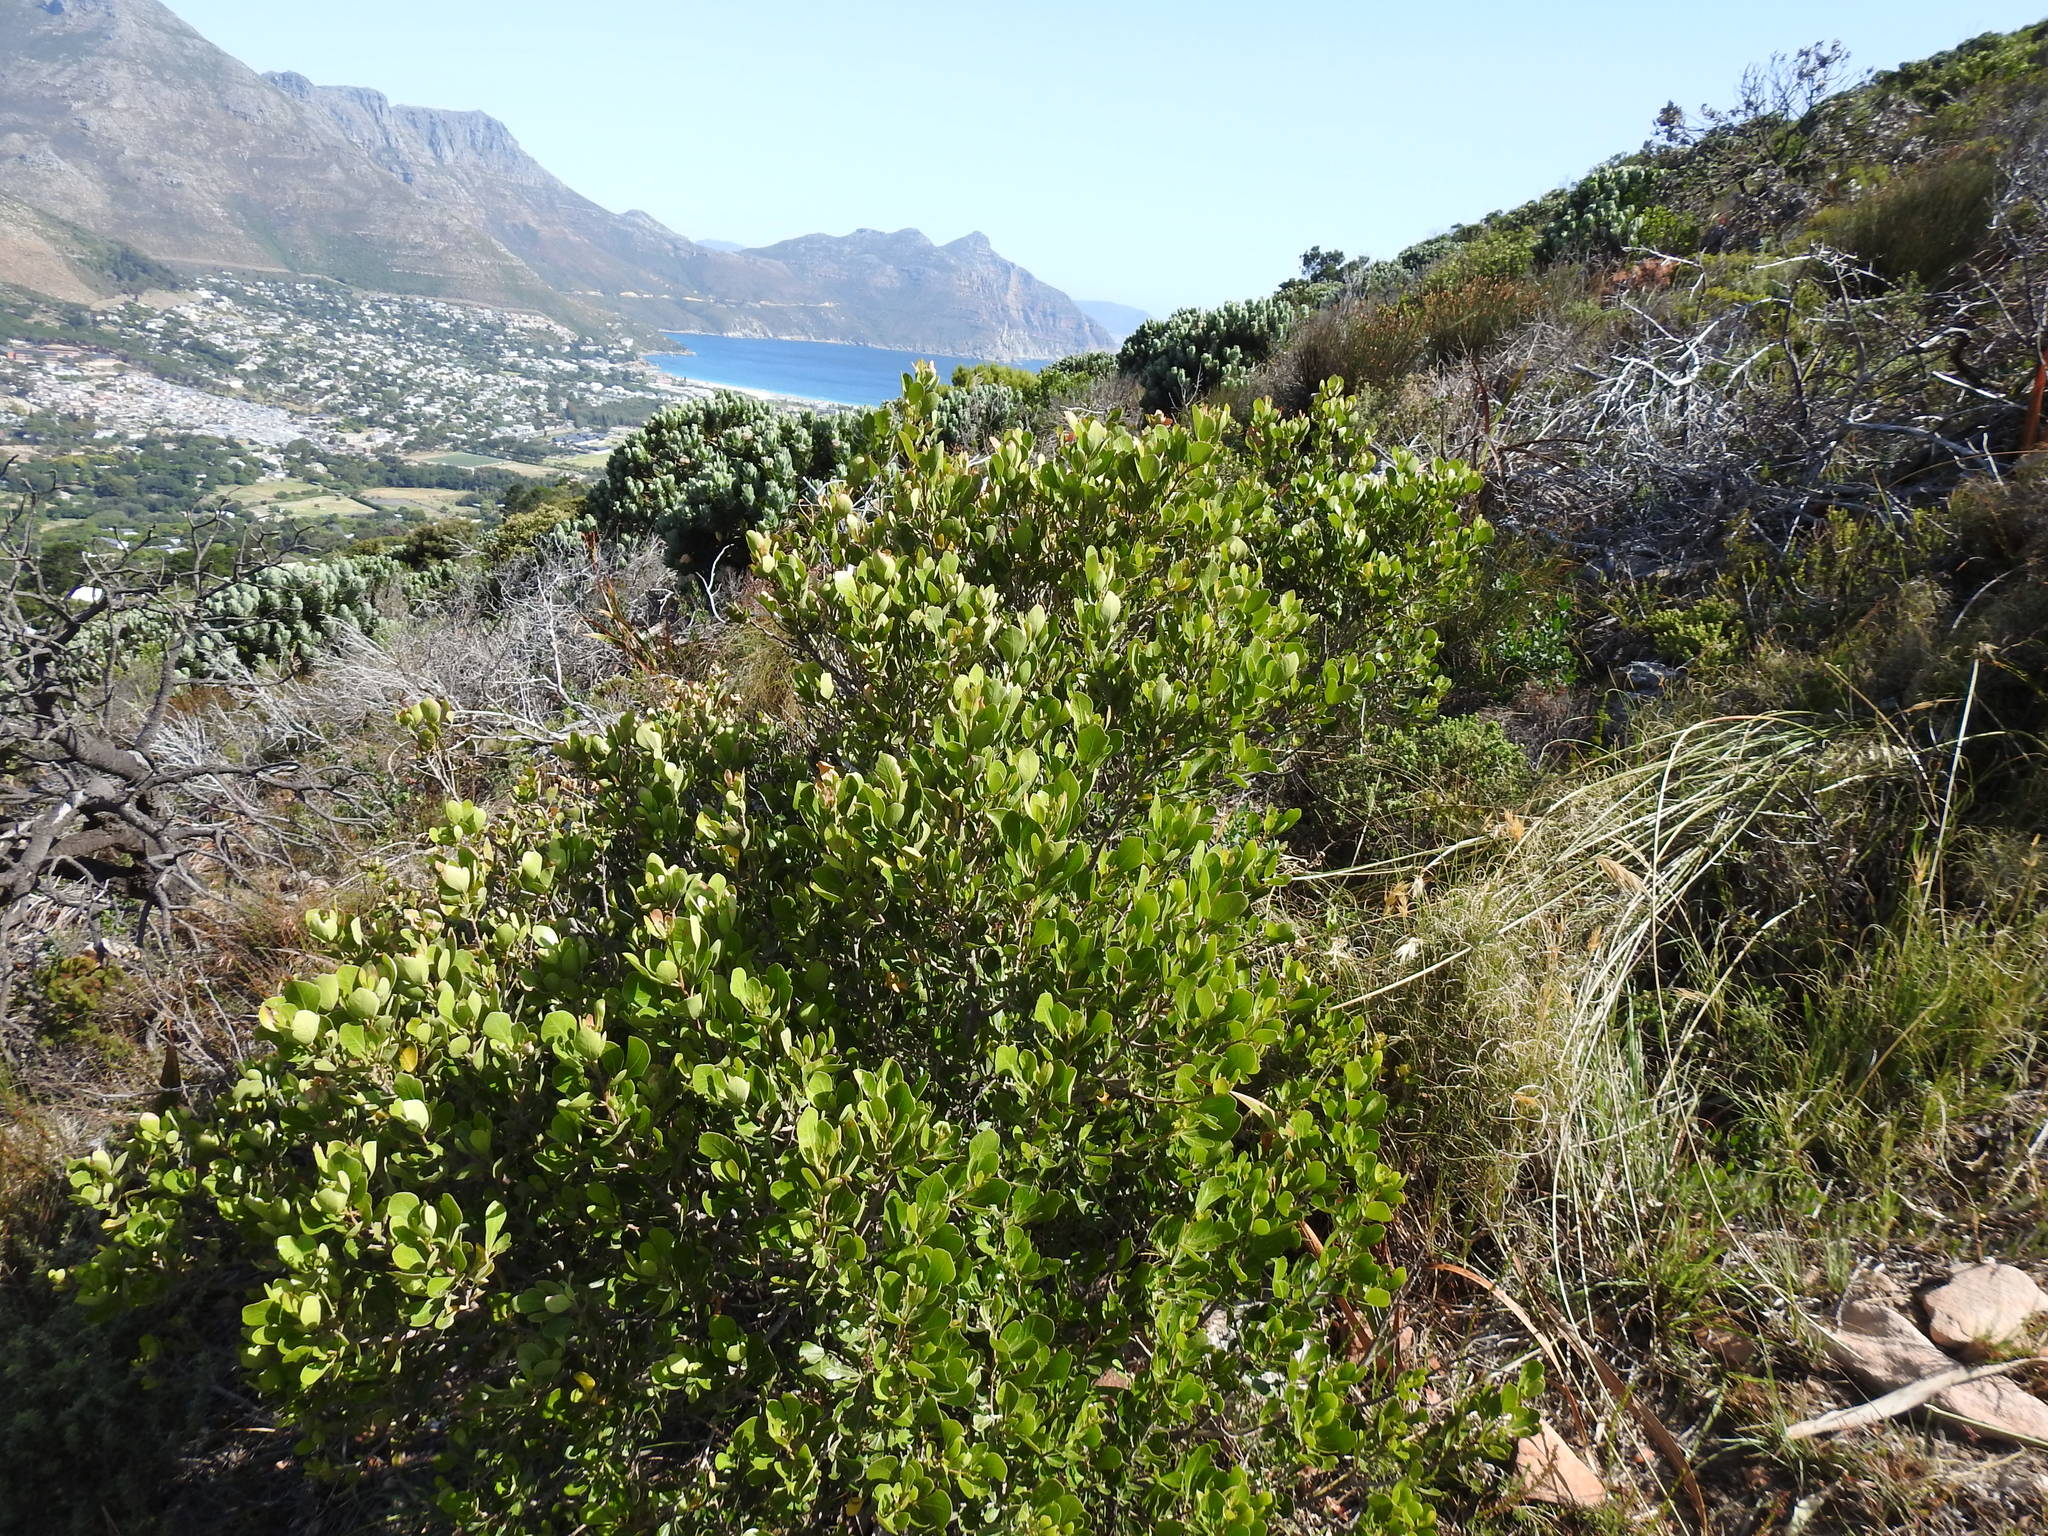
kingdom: Plantae
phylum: Tracheophyta
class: Magnoliopsida
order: Sapindales
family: Anacardiaceae
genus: Searsia
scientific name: Searsia lucida
